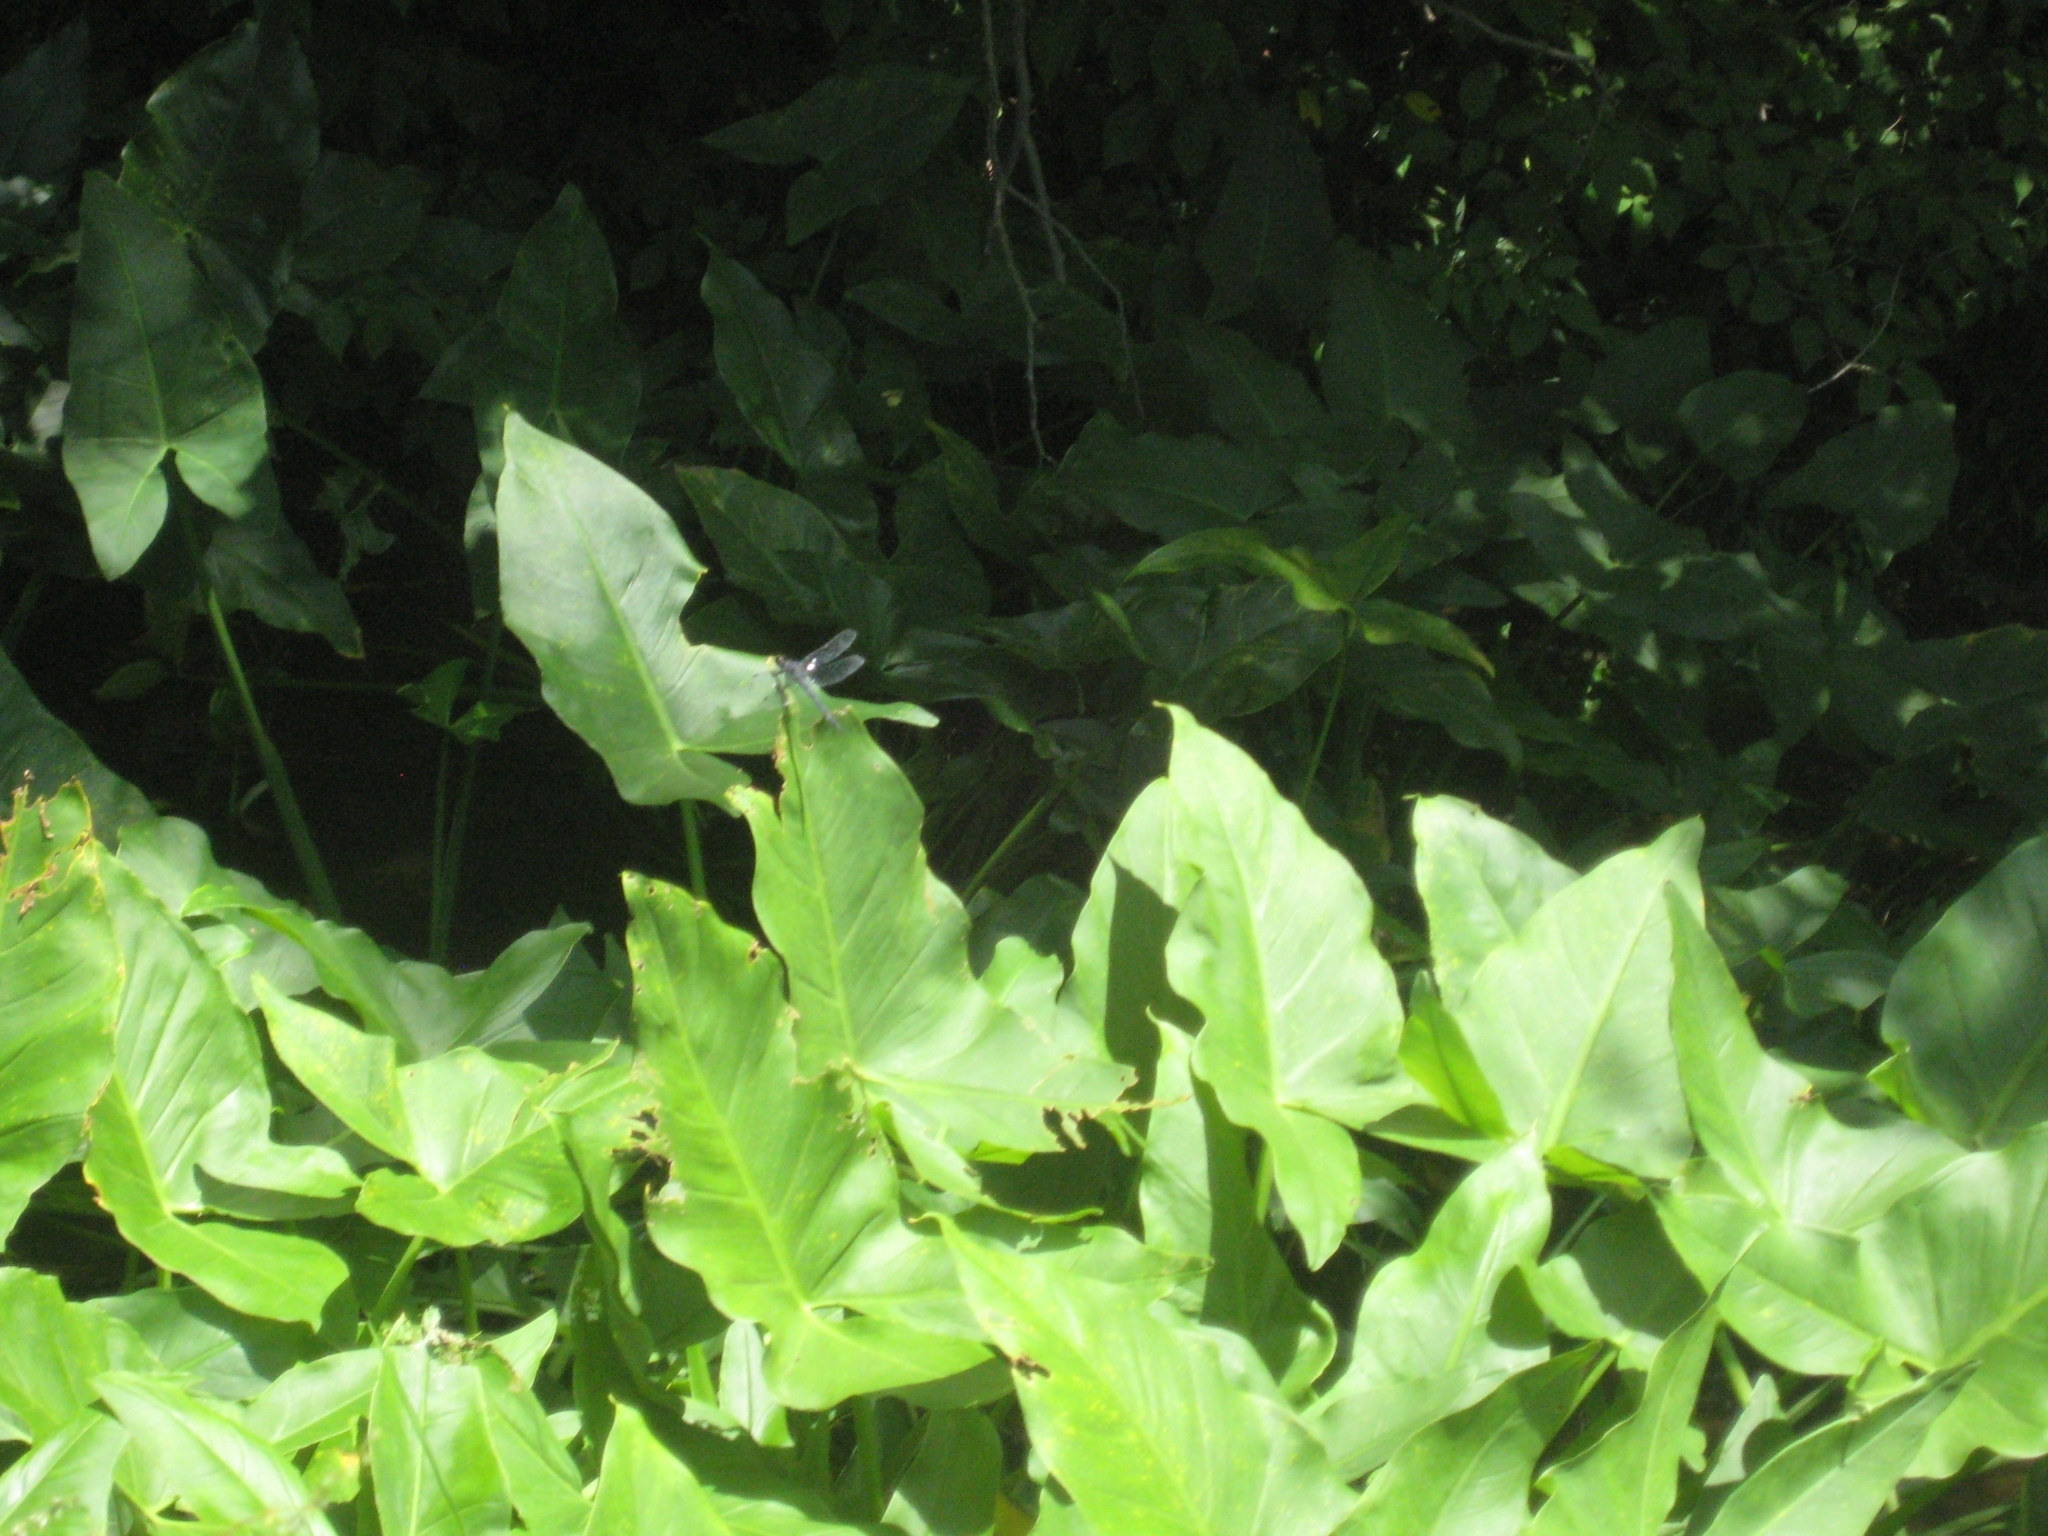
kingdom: Plantae
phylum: Tracheophyta
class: Liliopsida
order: Alismatales
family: Araceae
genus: Peltandra
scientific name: Peltandra virginica
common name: Arrow arum
